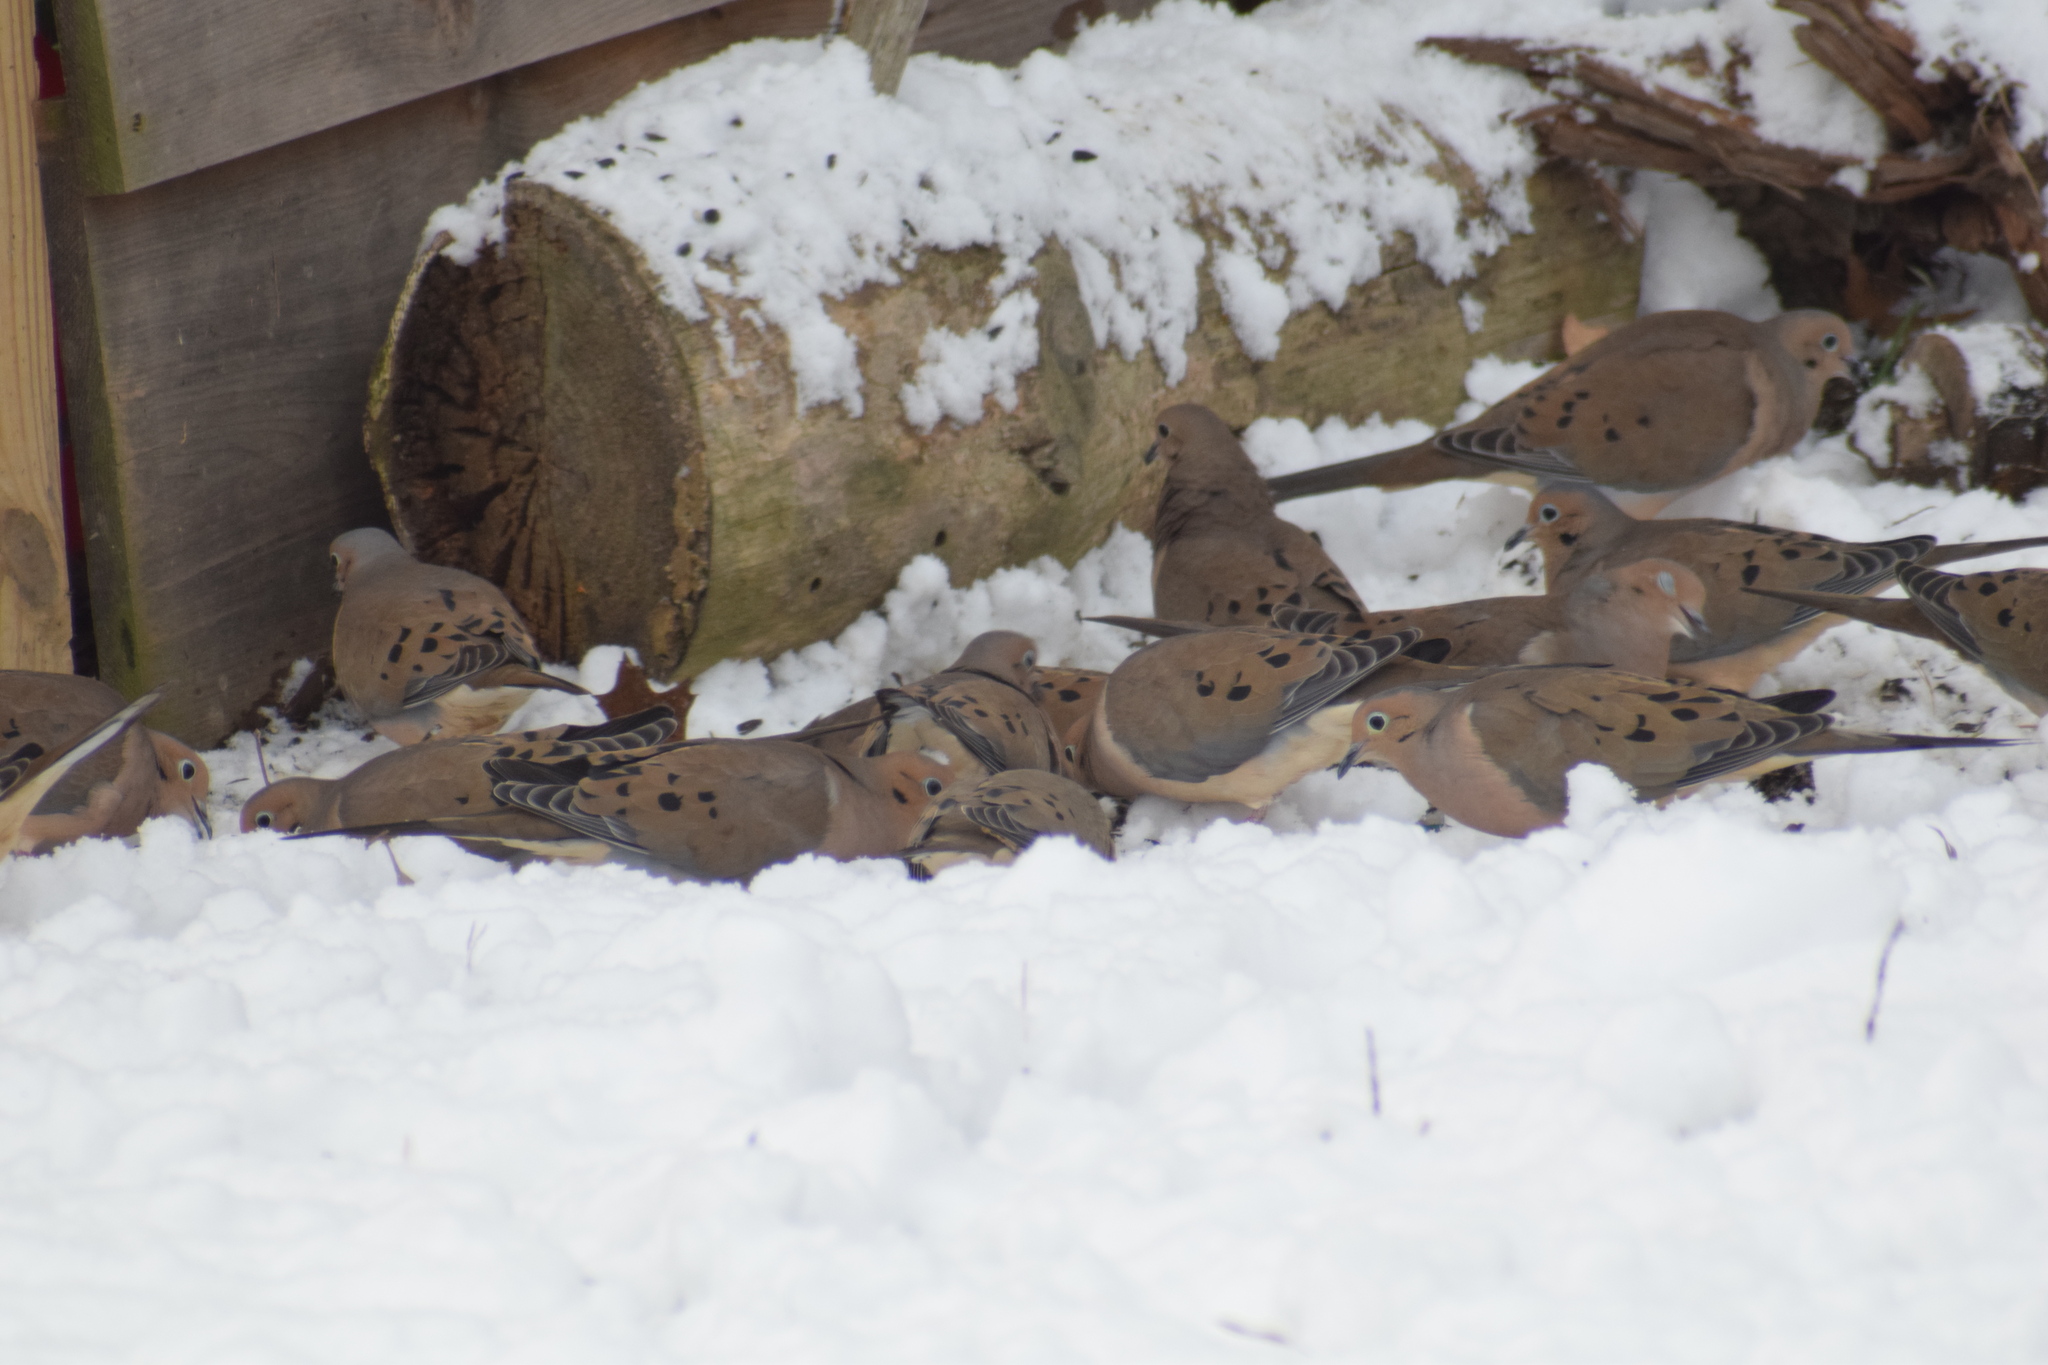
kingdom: Animalia
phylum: Chordata
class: Aves
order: Columbiformes
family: Columbidae
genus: Zenaida
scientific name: Zenaida macroura
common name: Mourning dove
